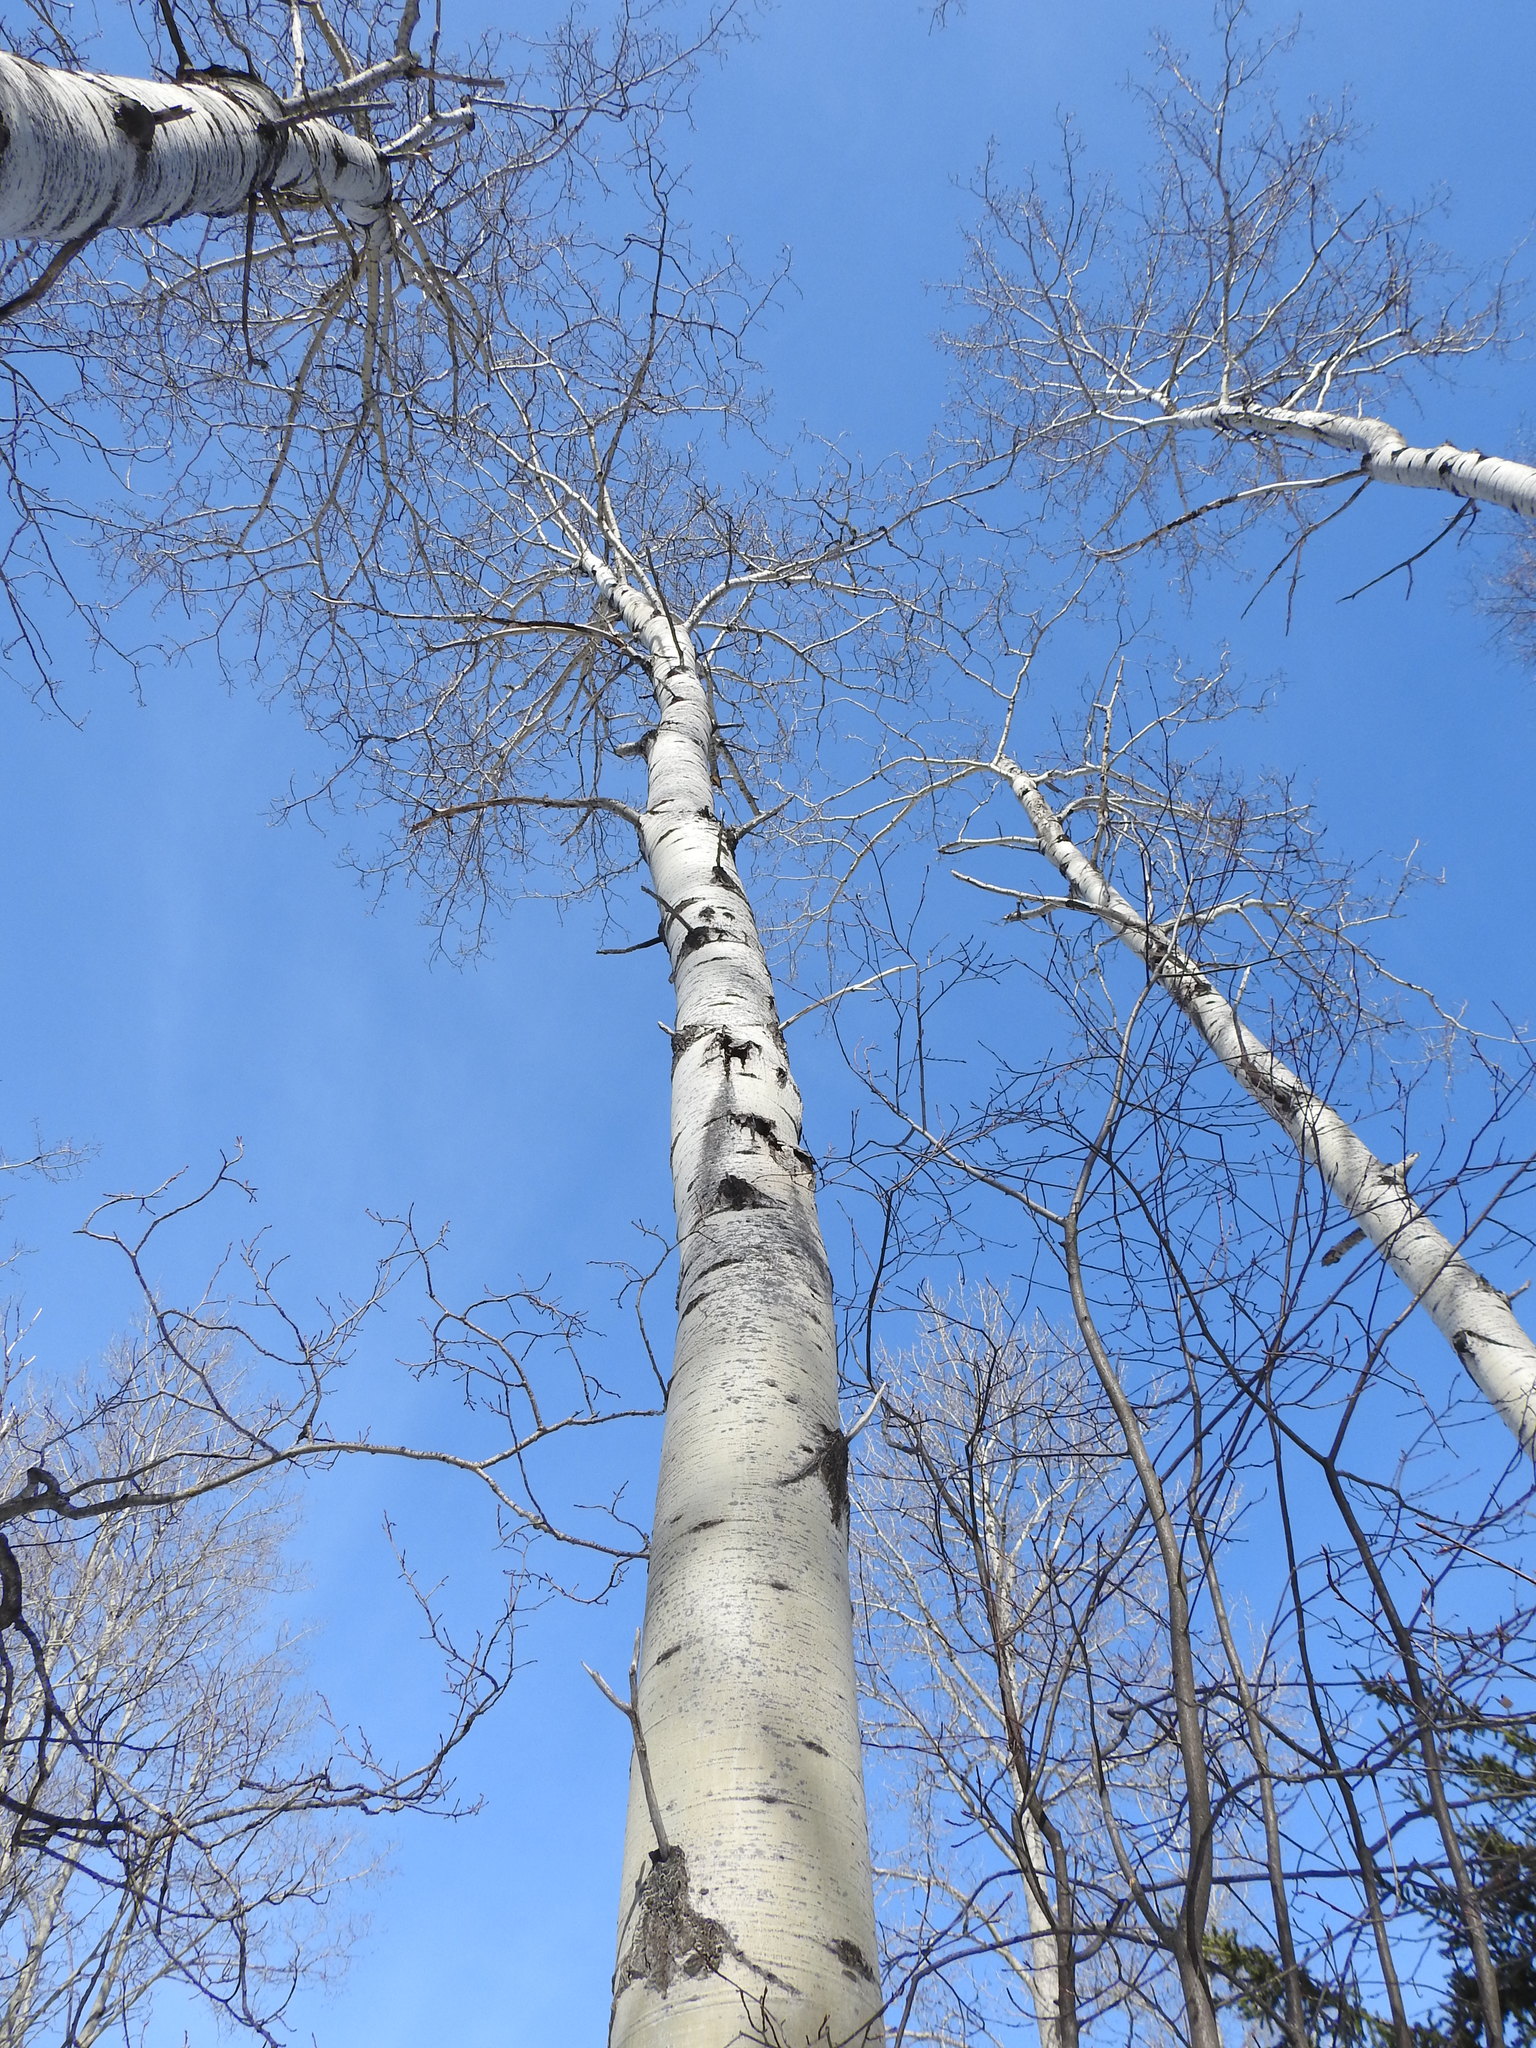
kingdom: Plantae
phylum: Tracheophyta
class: Magnoliopsida
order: Malpighiales
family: Salicaceae
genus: Populus
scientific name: Populus tremuloides
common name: Quaking aspen
